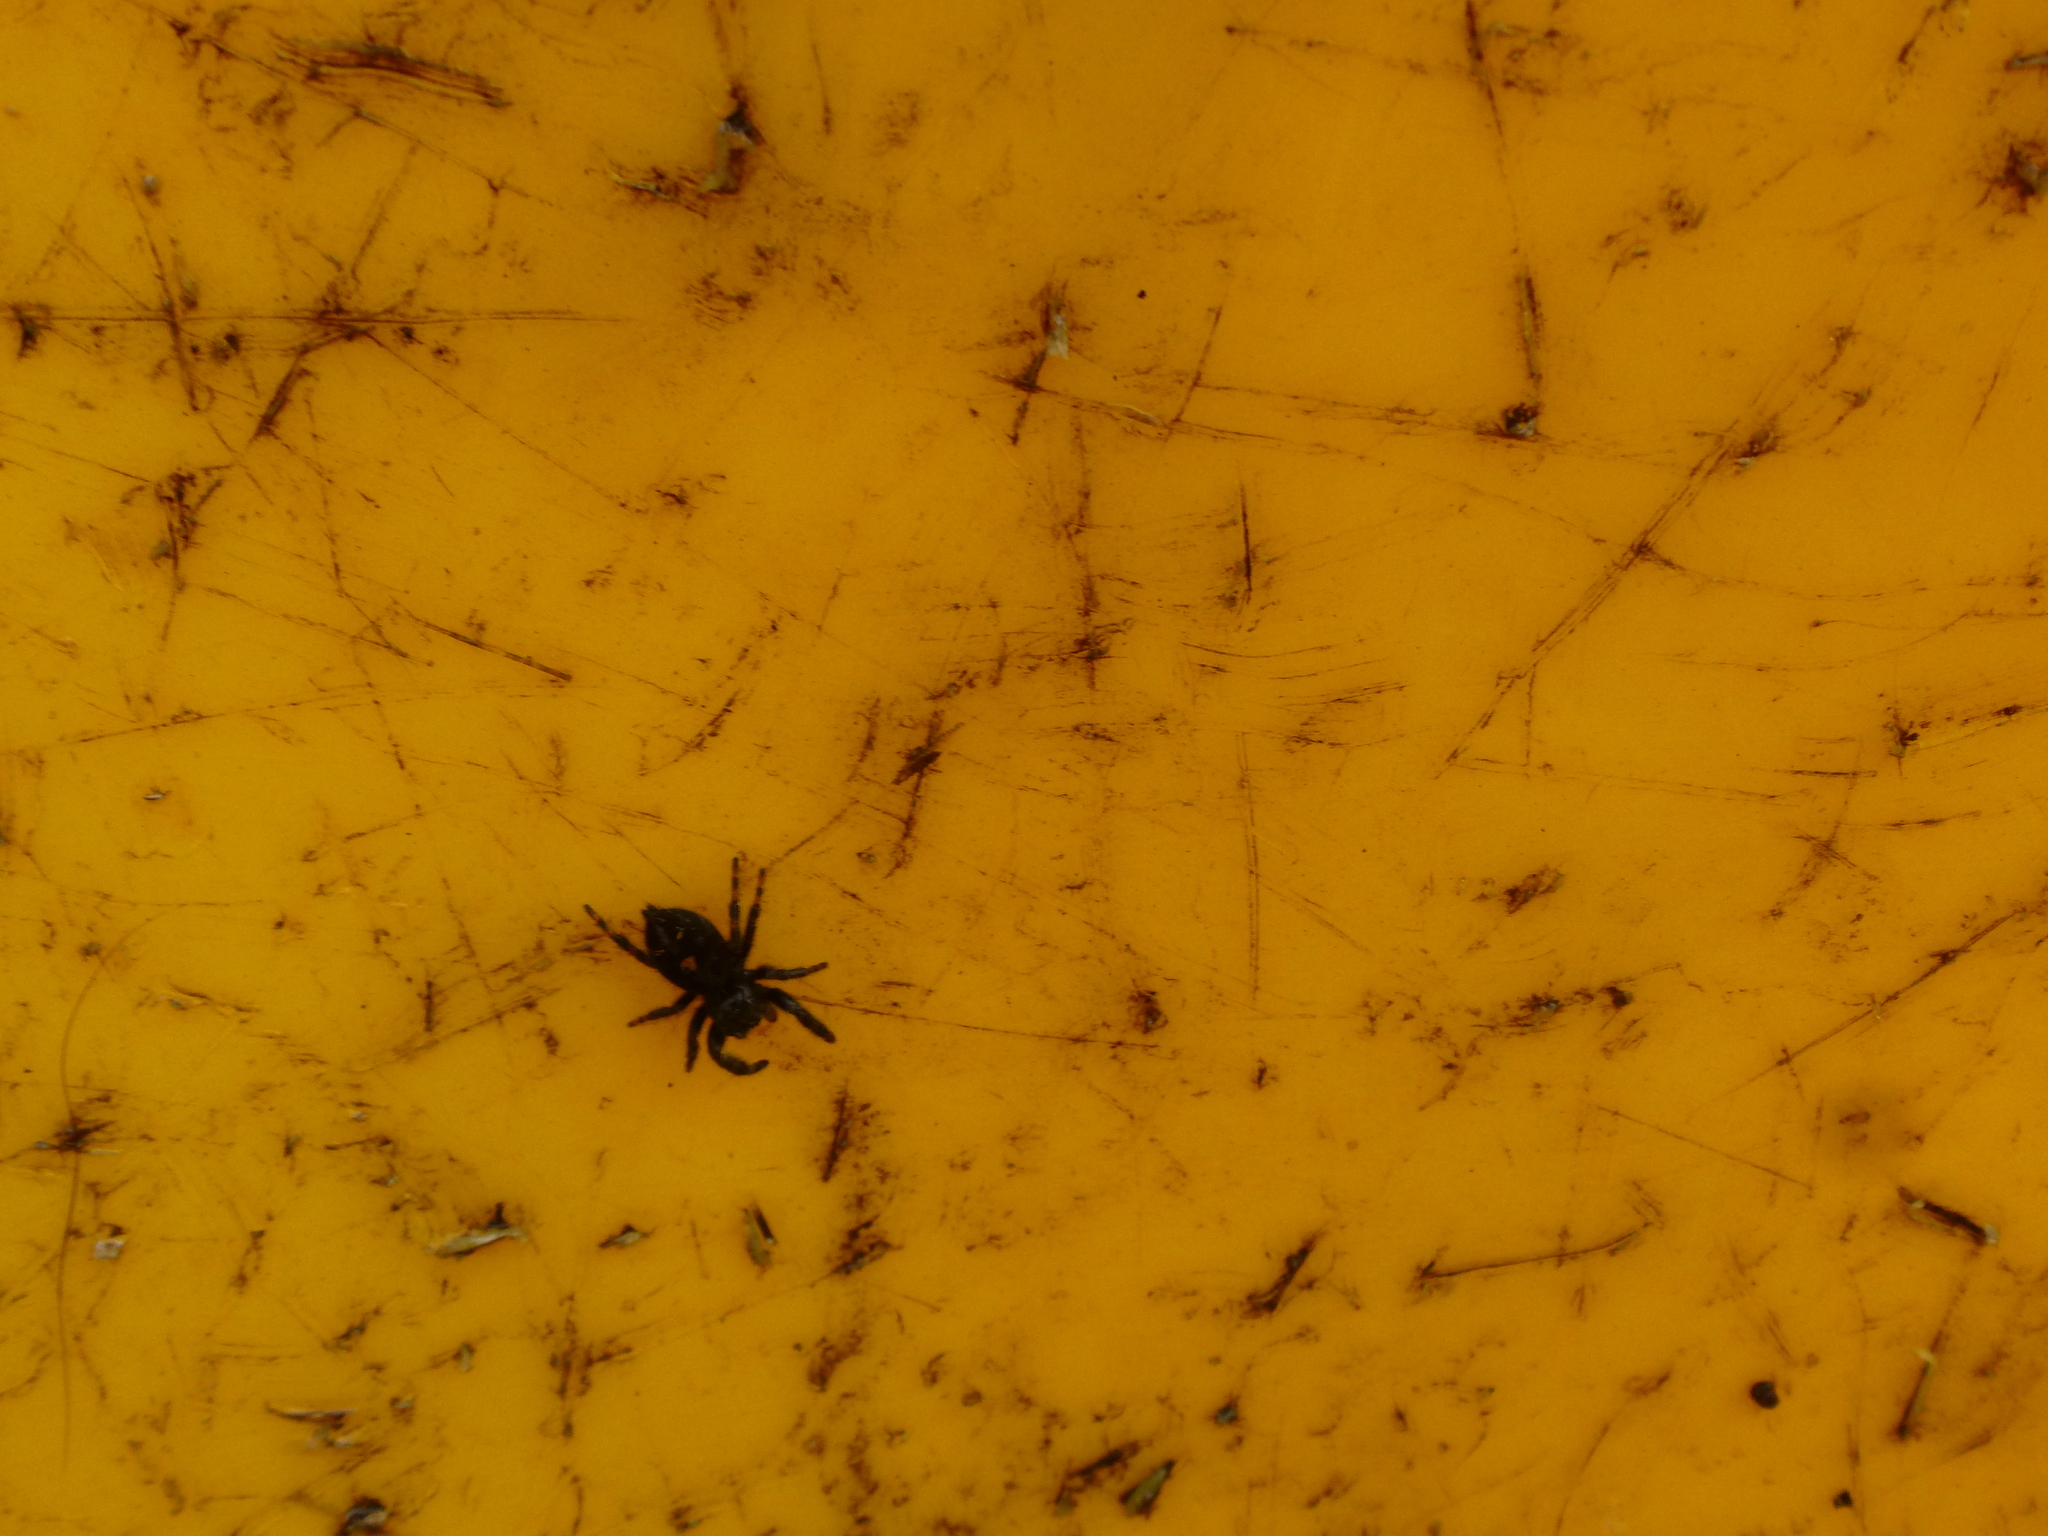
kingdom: Animalia
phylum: Arthropoda
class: Arachnida
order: Araneae
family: Salticidae
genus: Phidippus
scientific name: Phidippus audax
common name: Bold jumper
